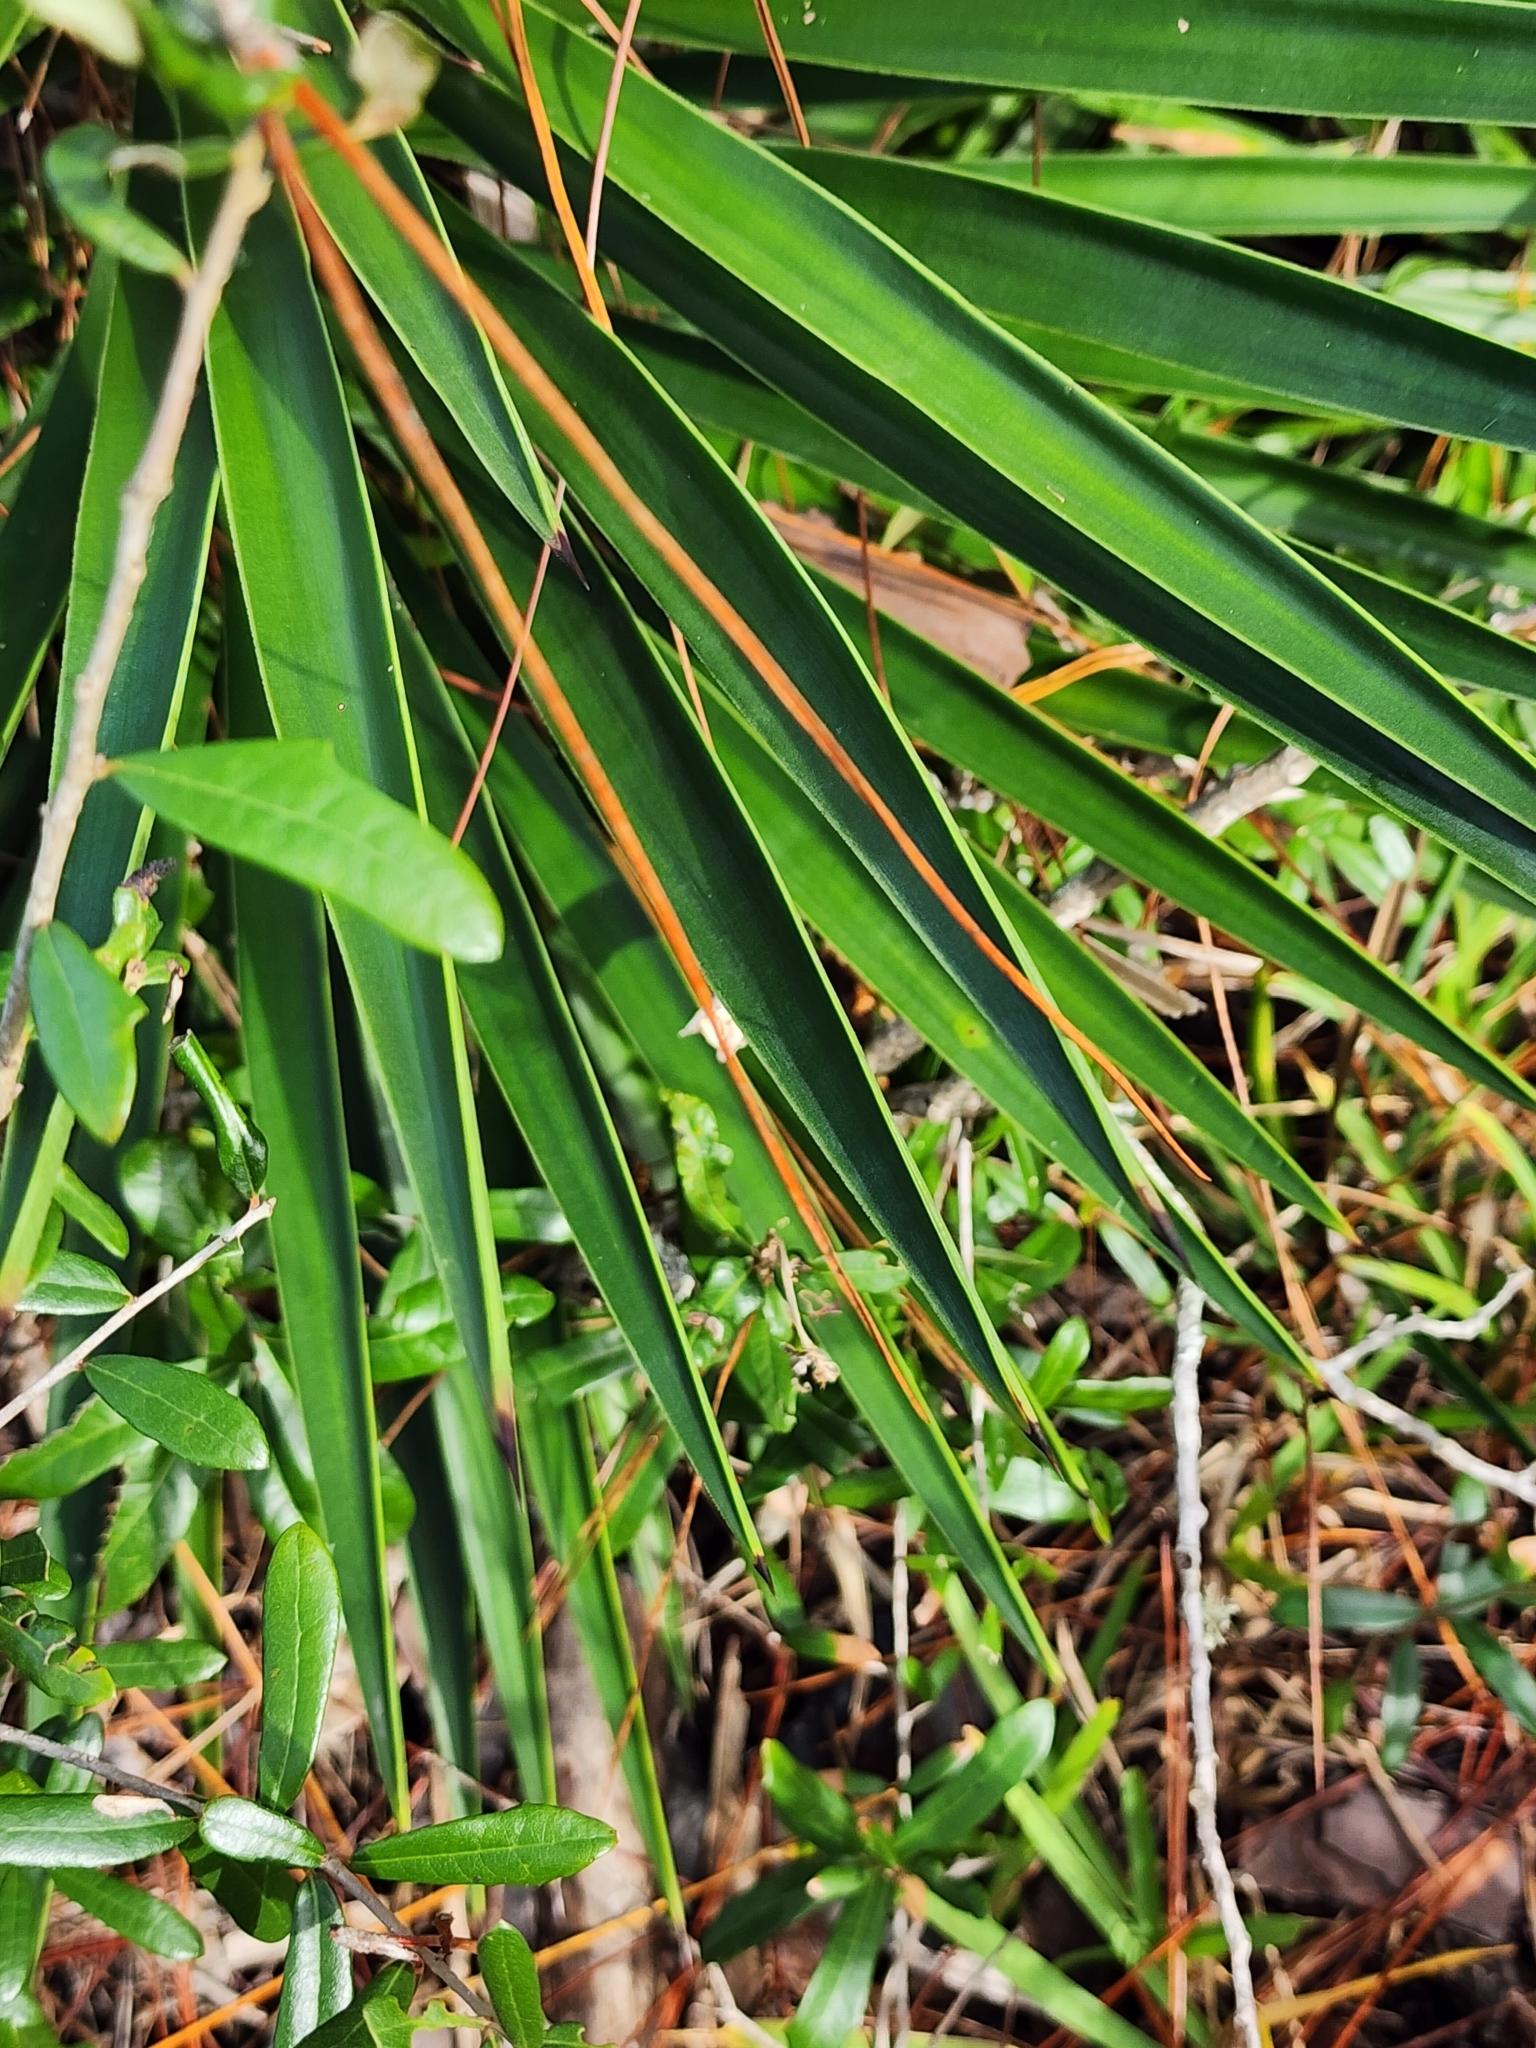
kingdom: Plantae
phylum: Tracheophyta
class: Liliopsida
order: Asparagales
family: Asparagaceae
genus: Yucca
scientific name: Yucca aloifolia
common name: Aloe yucca
